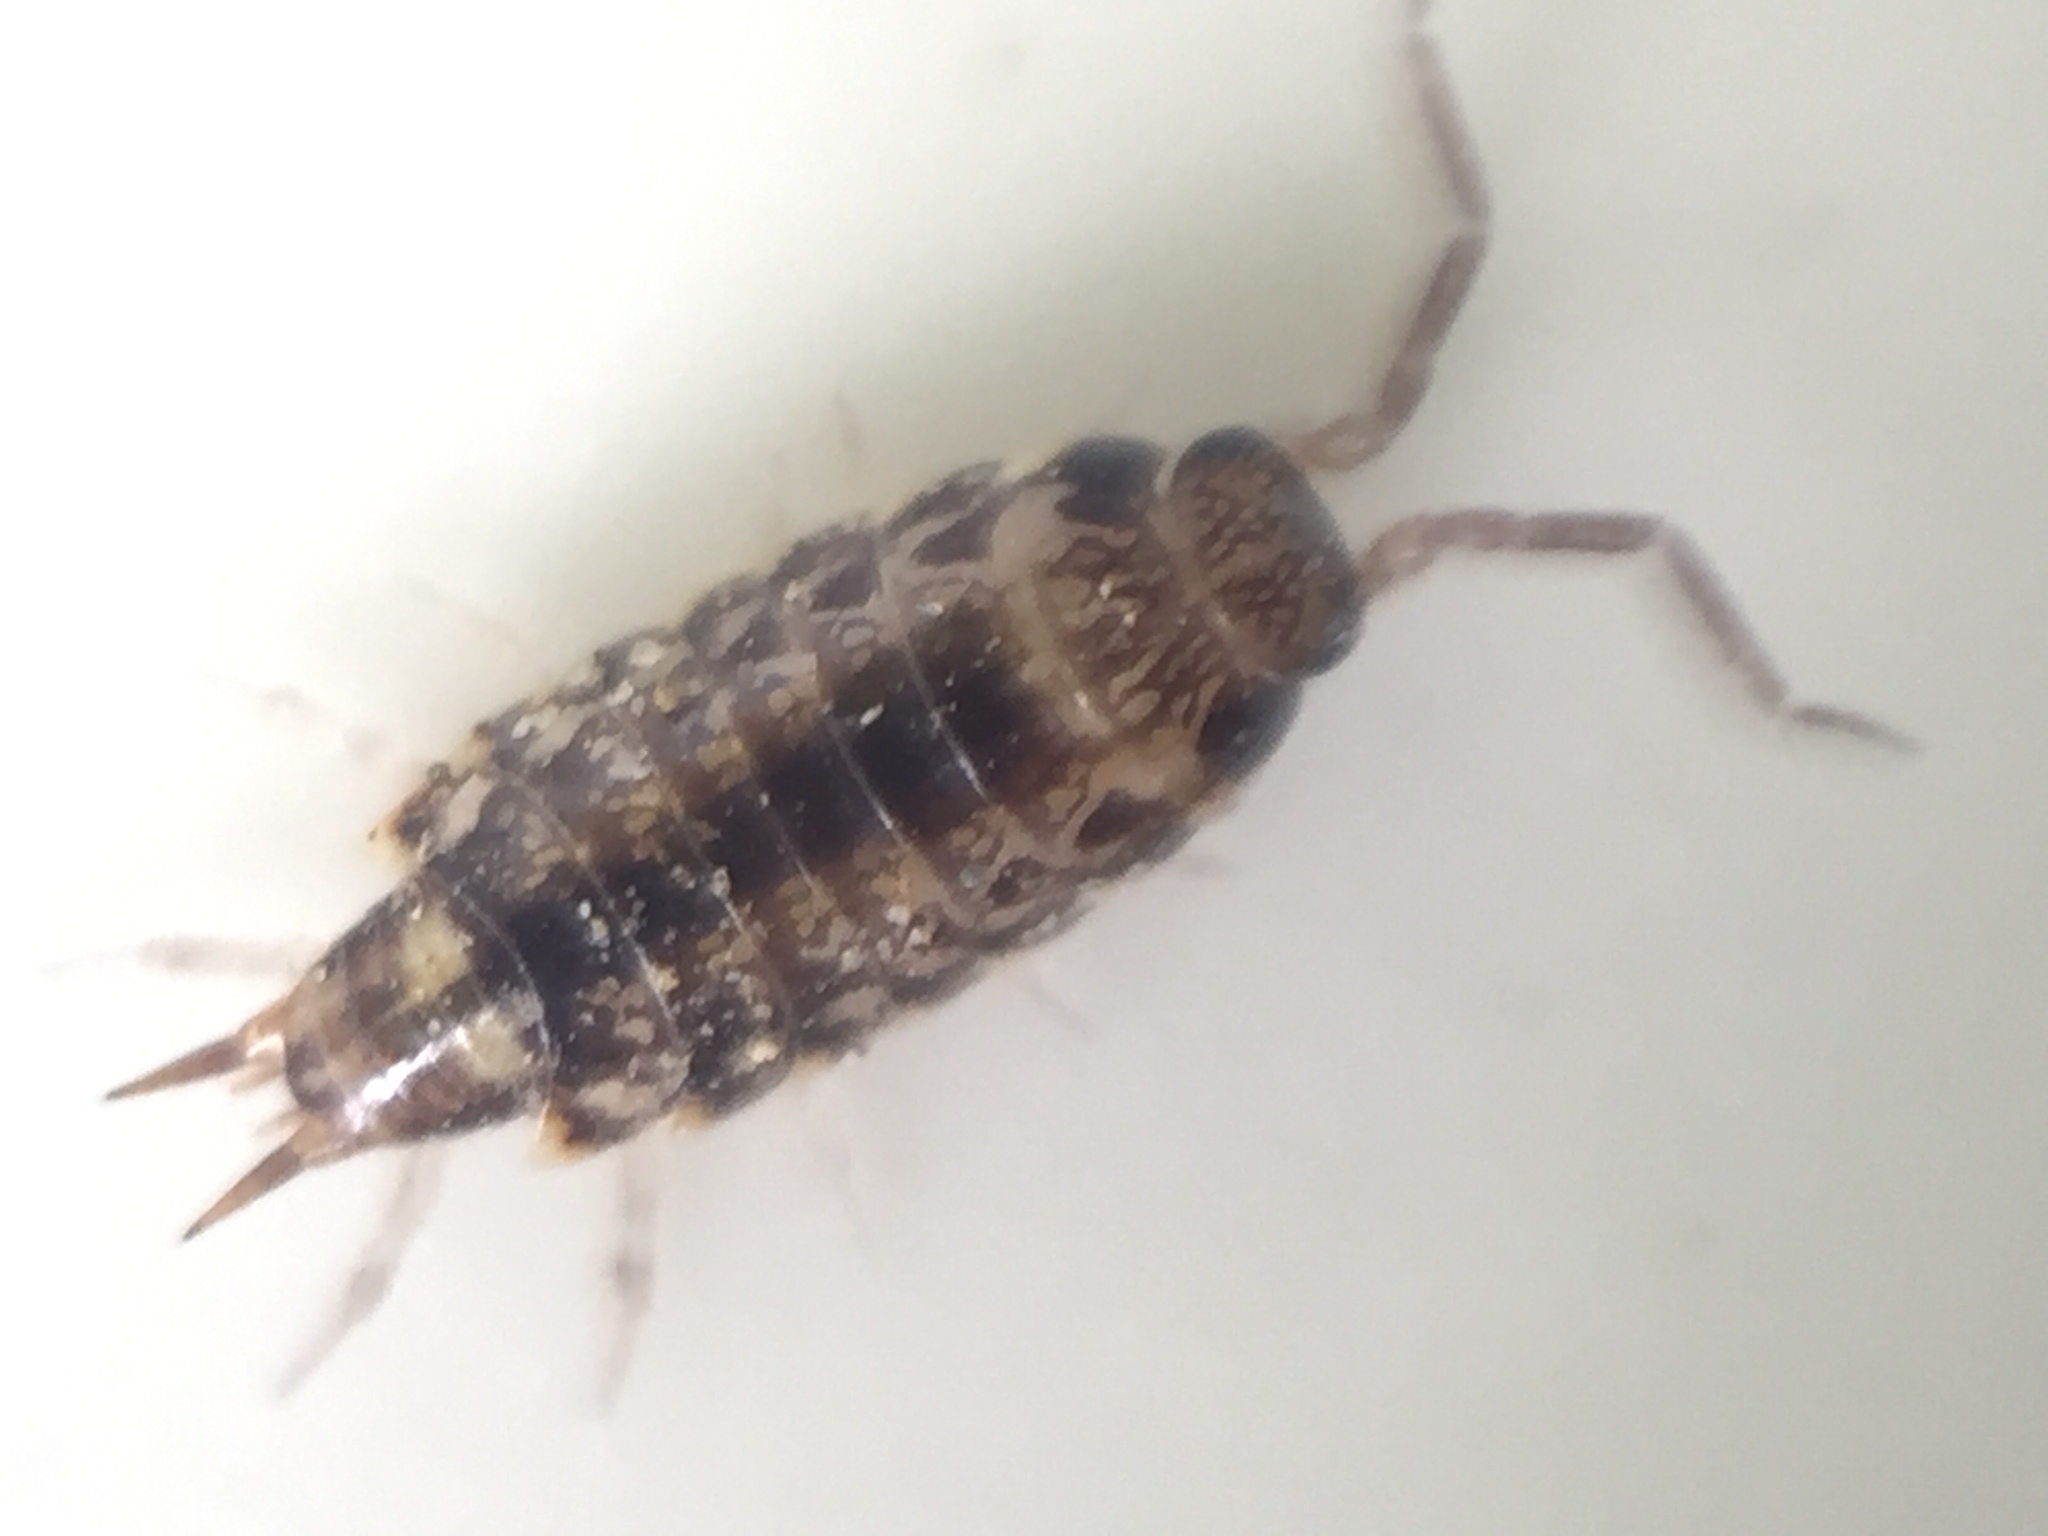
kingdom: Animalia
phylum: Arthropoda
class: Malacostraca
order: Isopoda
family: Philosciidae
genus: Australophiloscia
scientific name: Australophiloscia societatis
